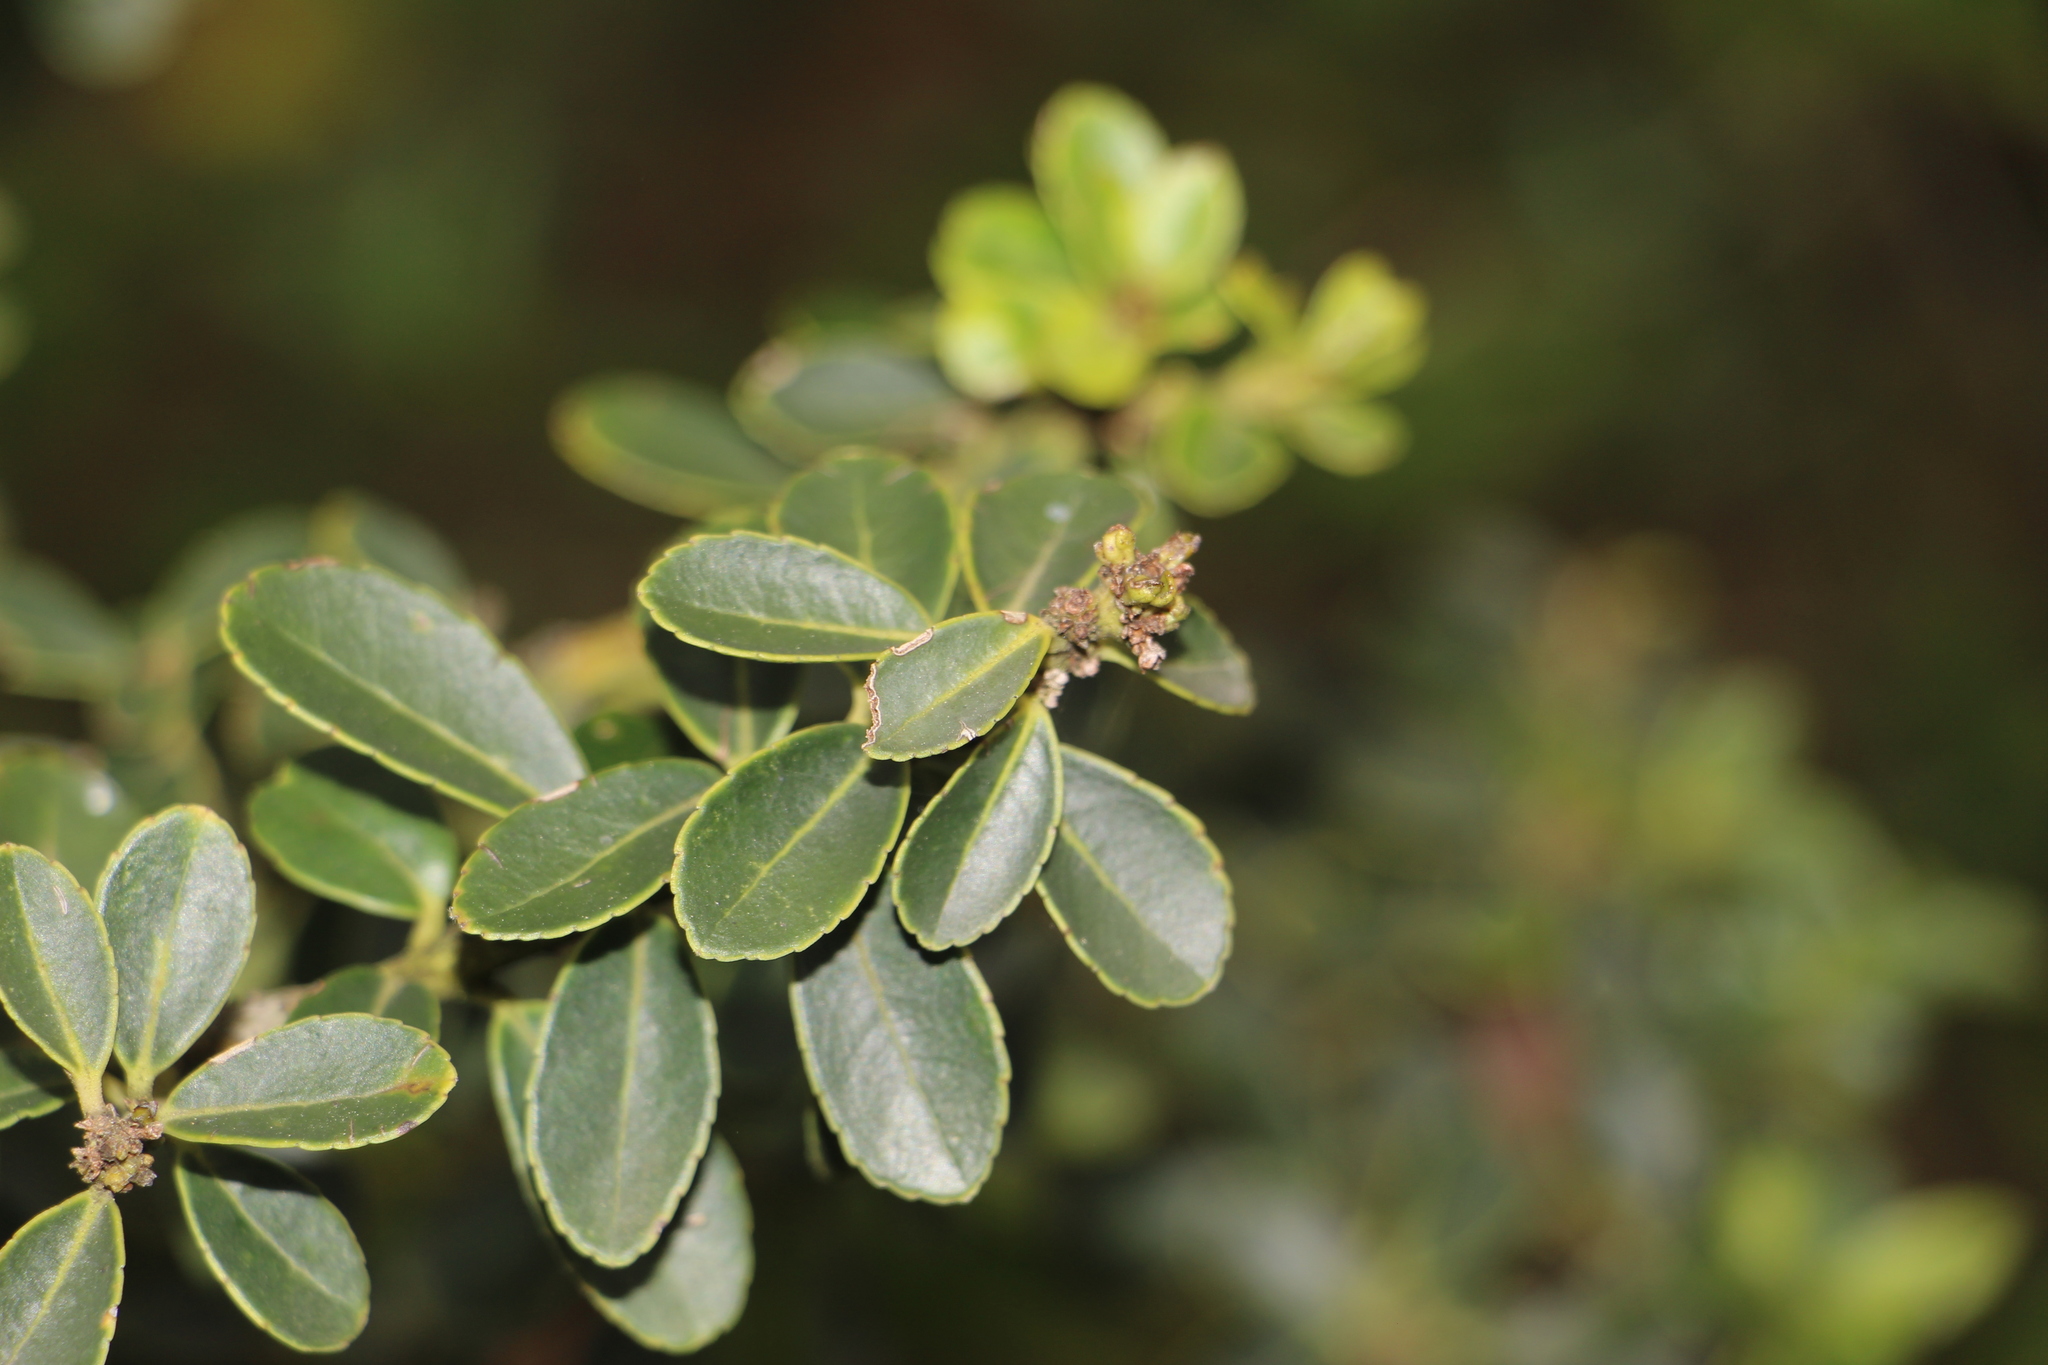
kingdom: Plantae
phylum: Tracheophyta
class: Magnoliopsida
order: Aquifoliales
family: Aquifoliaceae
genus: Ilex
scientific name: Ilex microphylla
